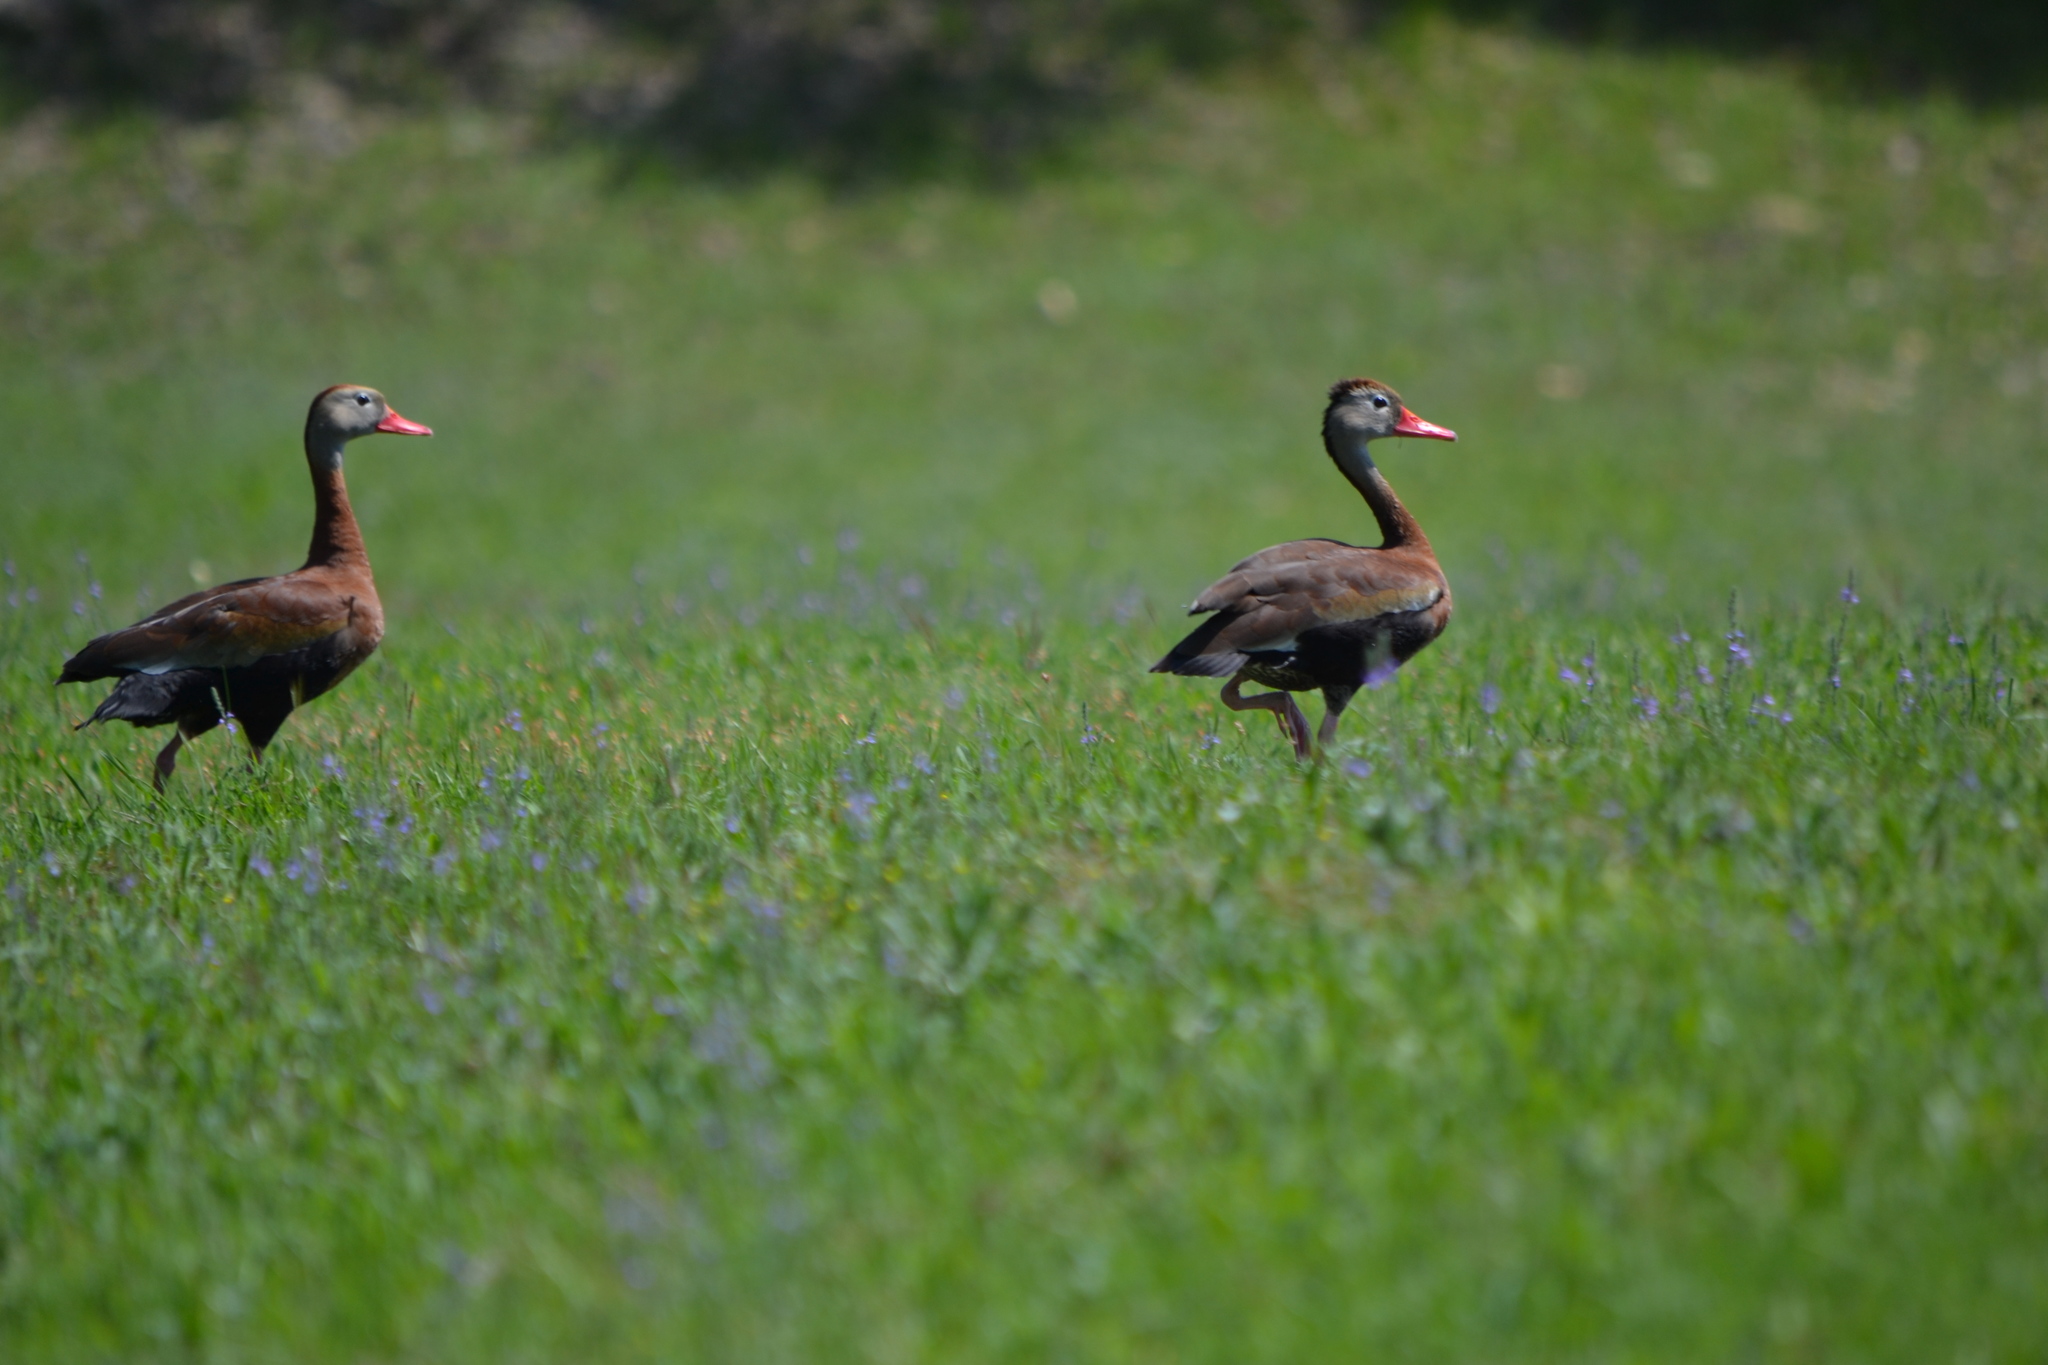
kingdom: Animalia
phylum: Chordata
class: Aves
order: Anseriformes
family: Anatidae
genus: Dendrocygna
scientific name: Dendrocygna autumnalis
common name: Black-bellied whistling duck
